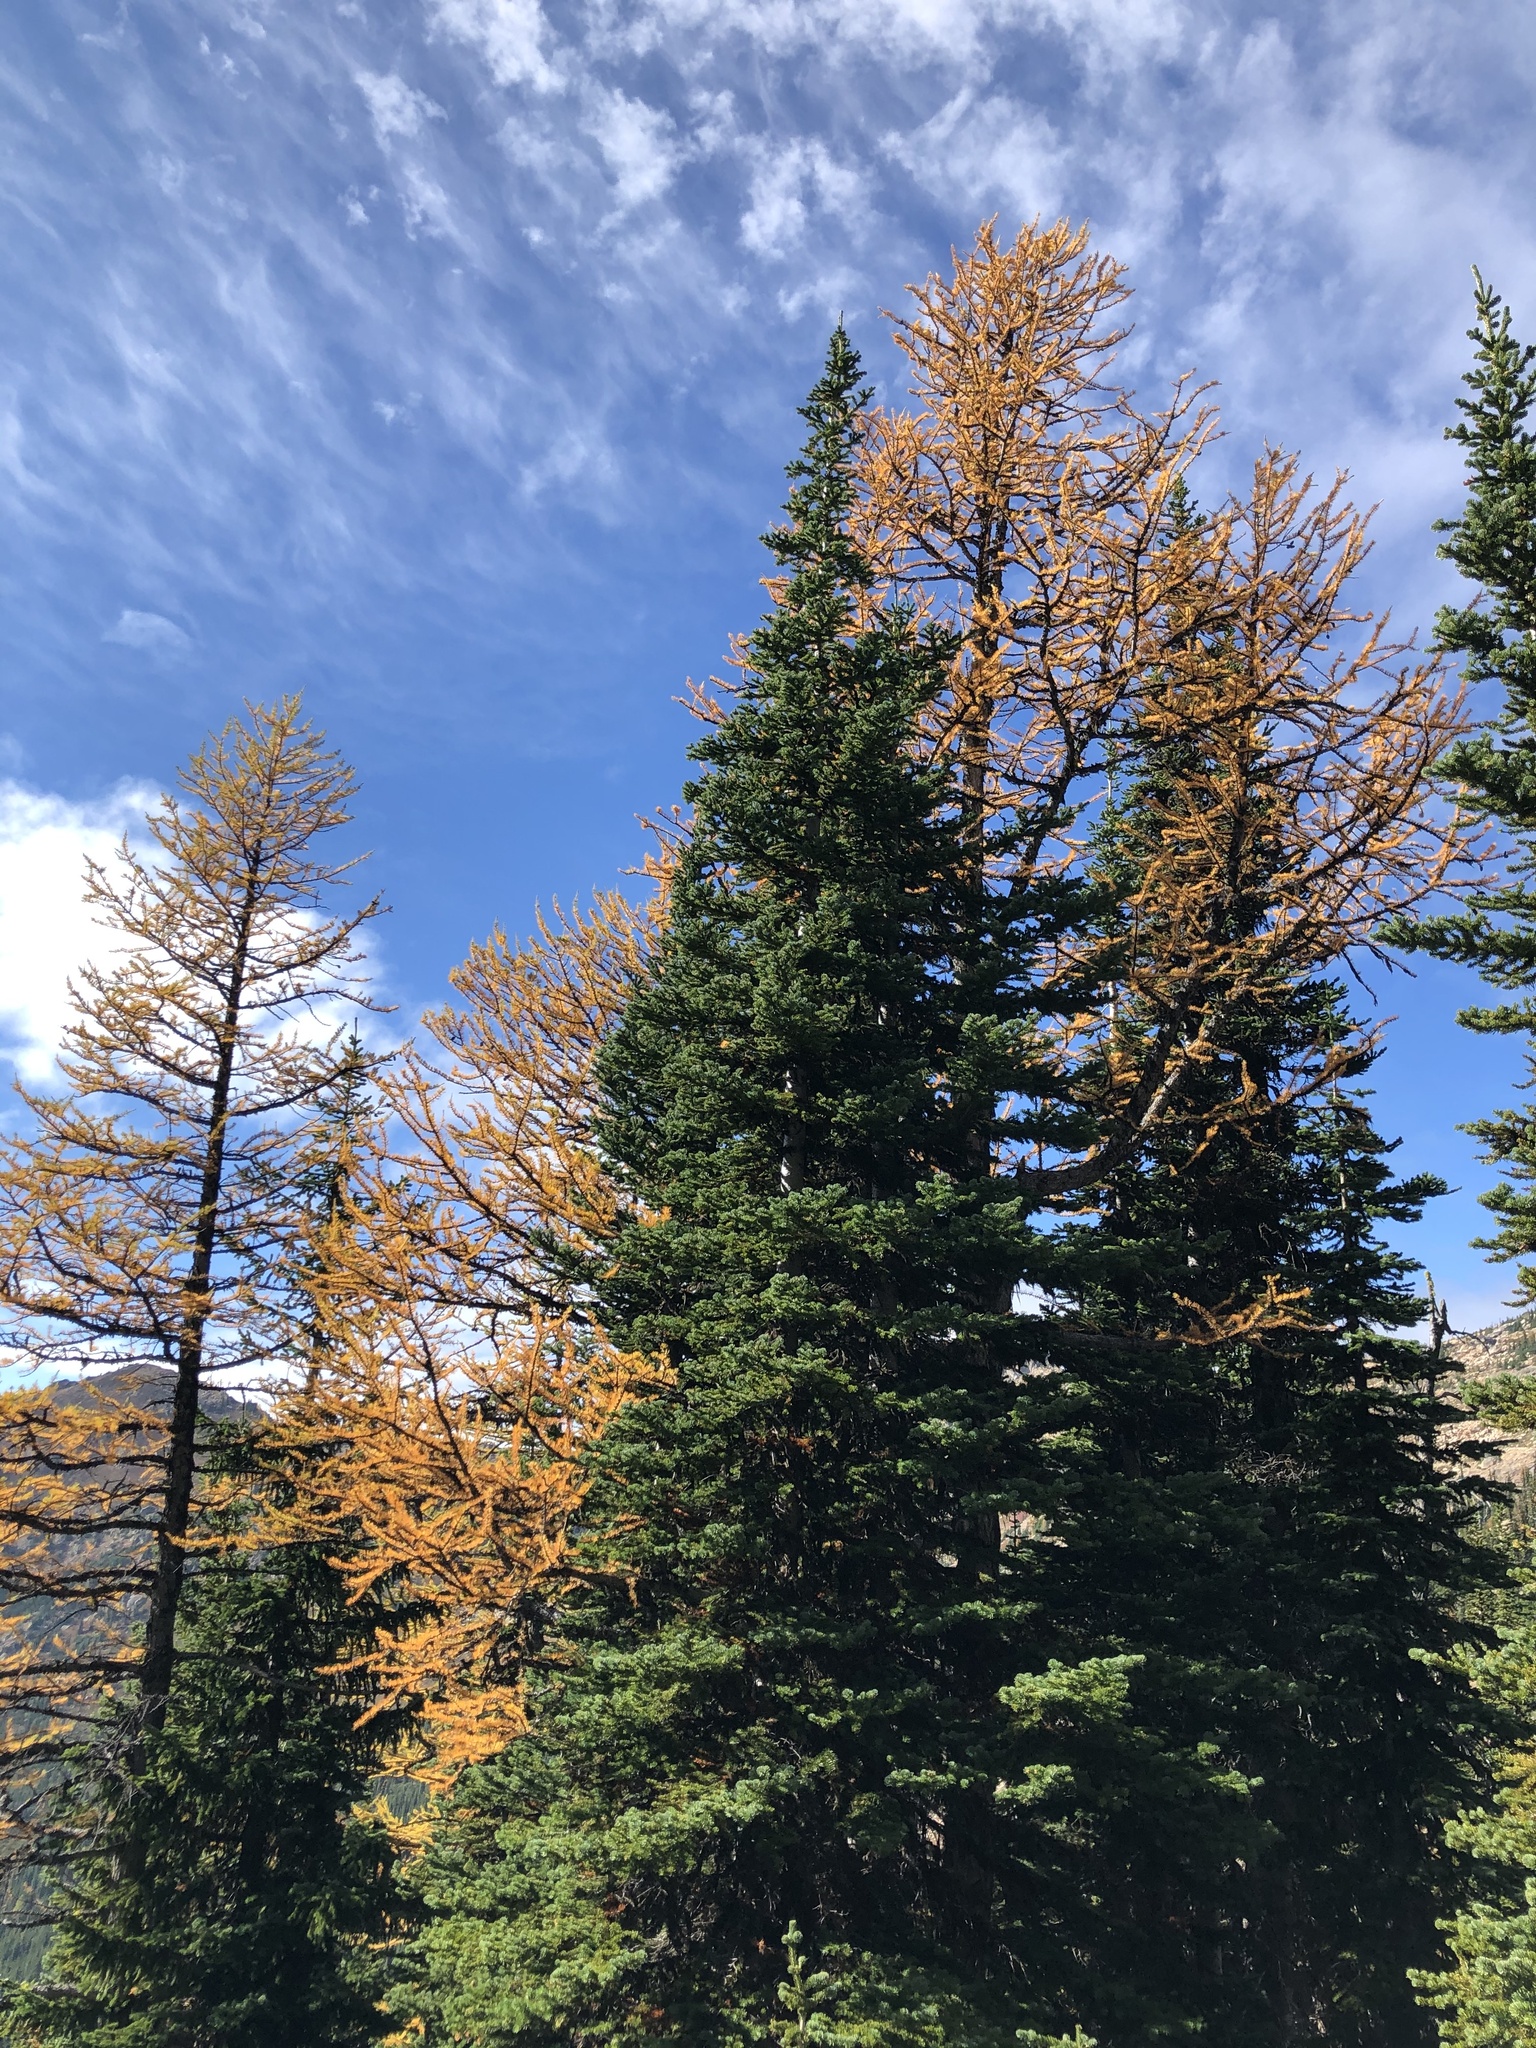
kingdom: Plantae
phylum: Tracheophyta
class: Pinopsida
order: Pinales
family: Pinaceae
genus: Larix
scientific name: Larix lyallii
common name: Alpine larch
